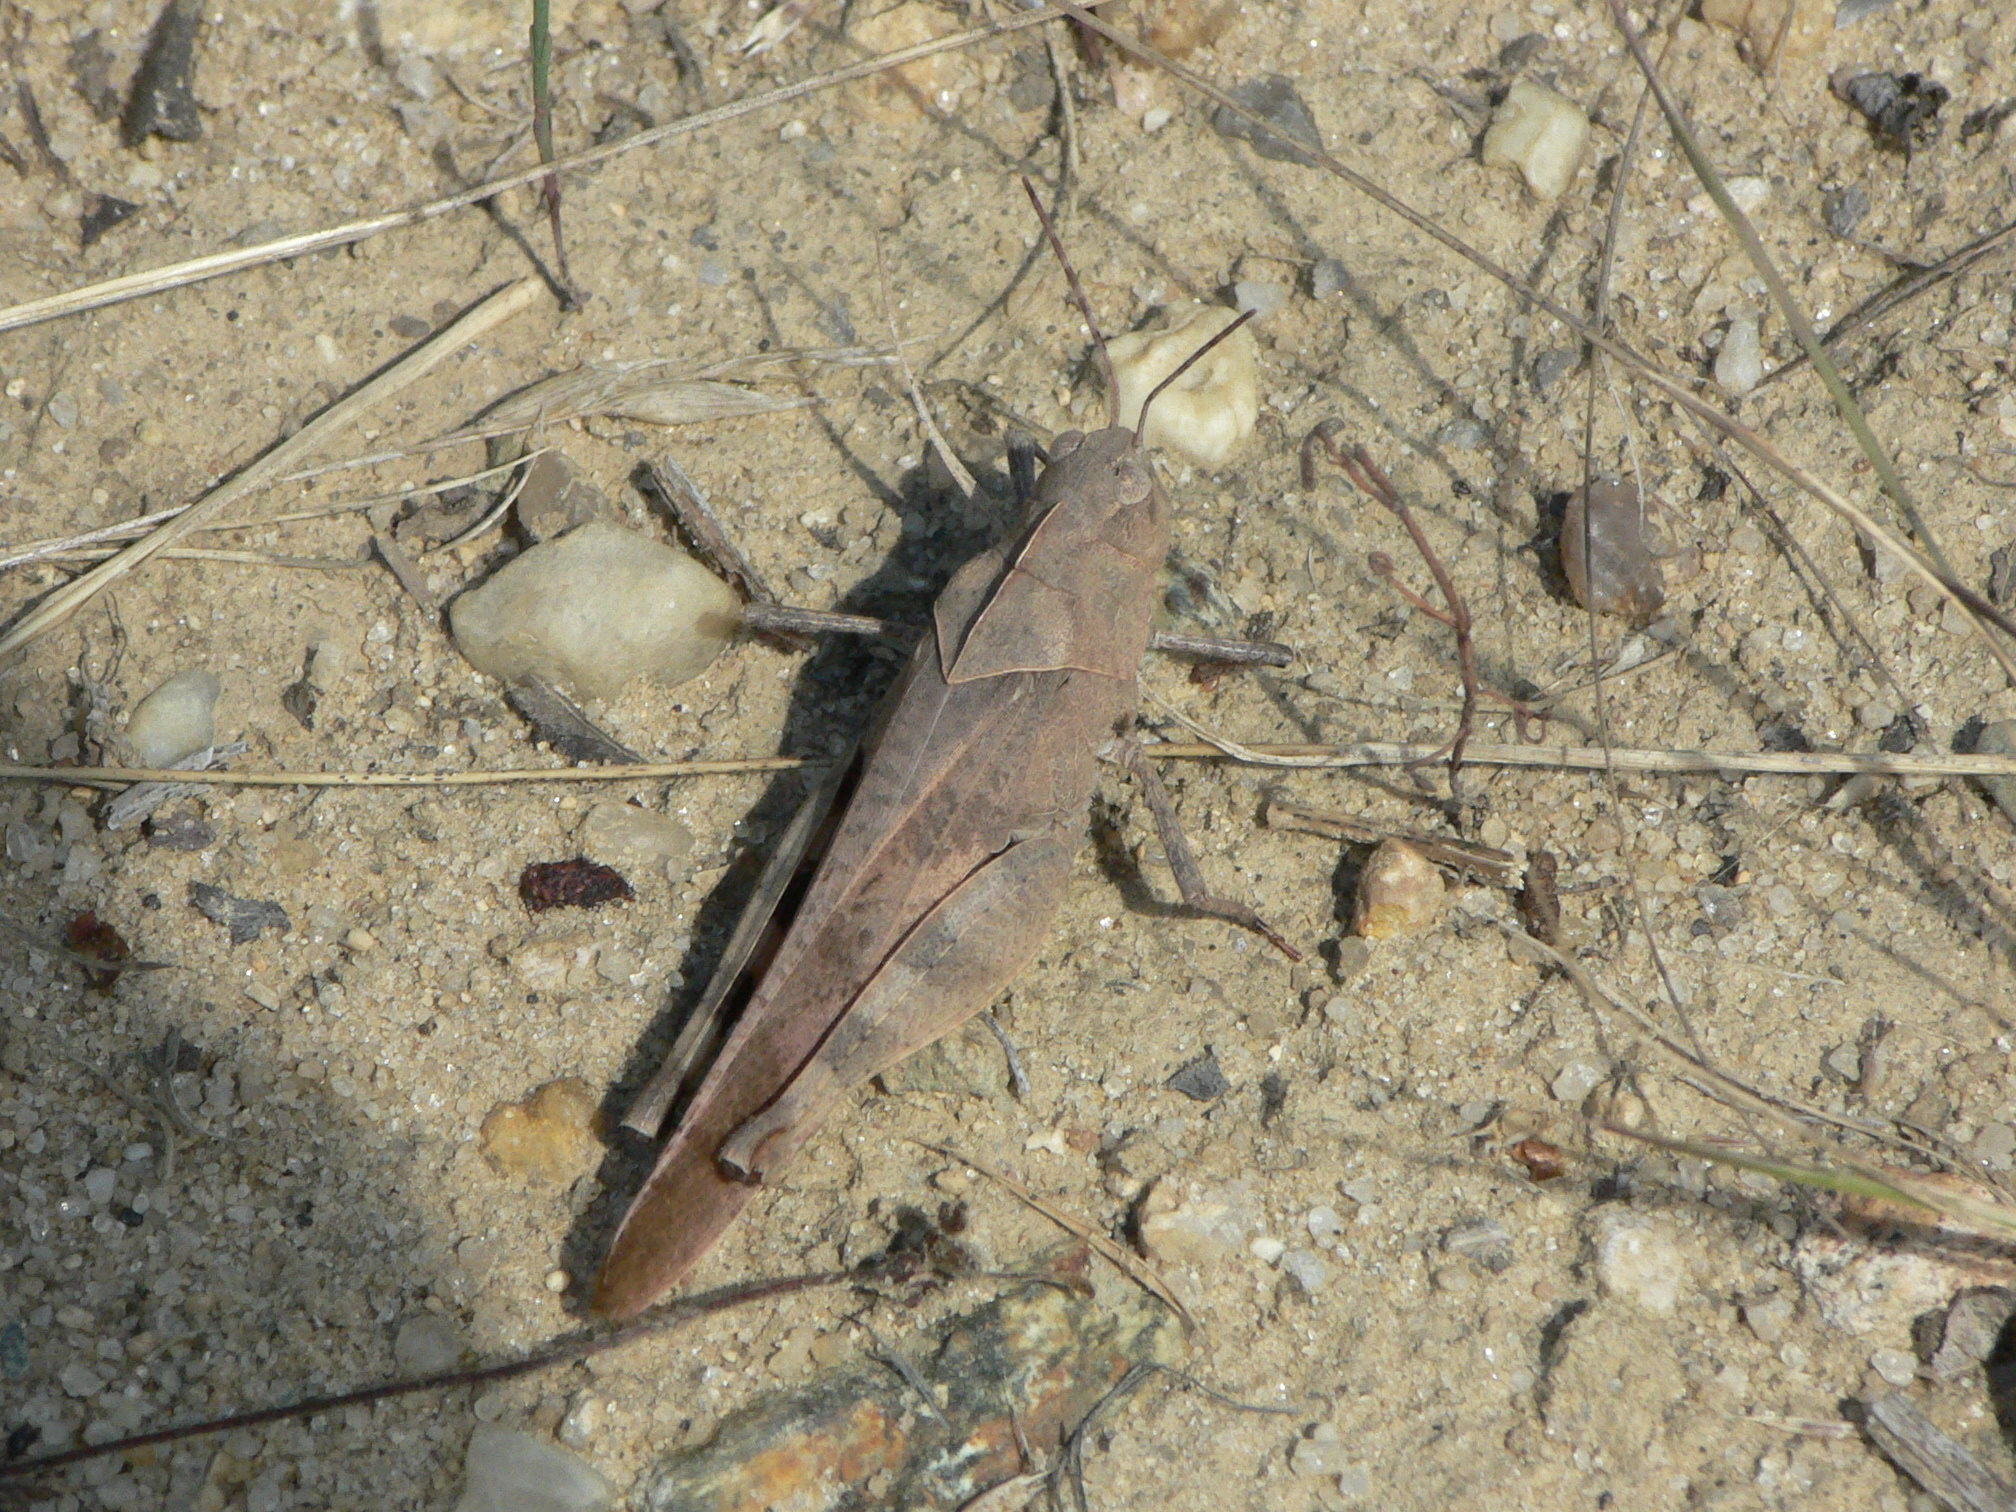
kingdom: Animalia
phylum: Arthropoda
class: Insecta
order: Orthoptera
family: Acrididae
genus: Spharagemon
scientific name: Spharagemon bolli
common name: Boll's grasshopper
